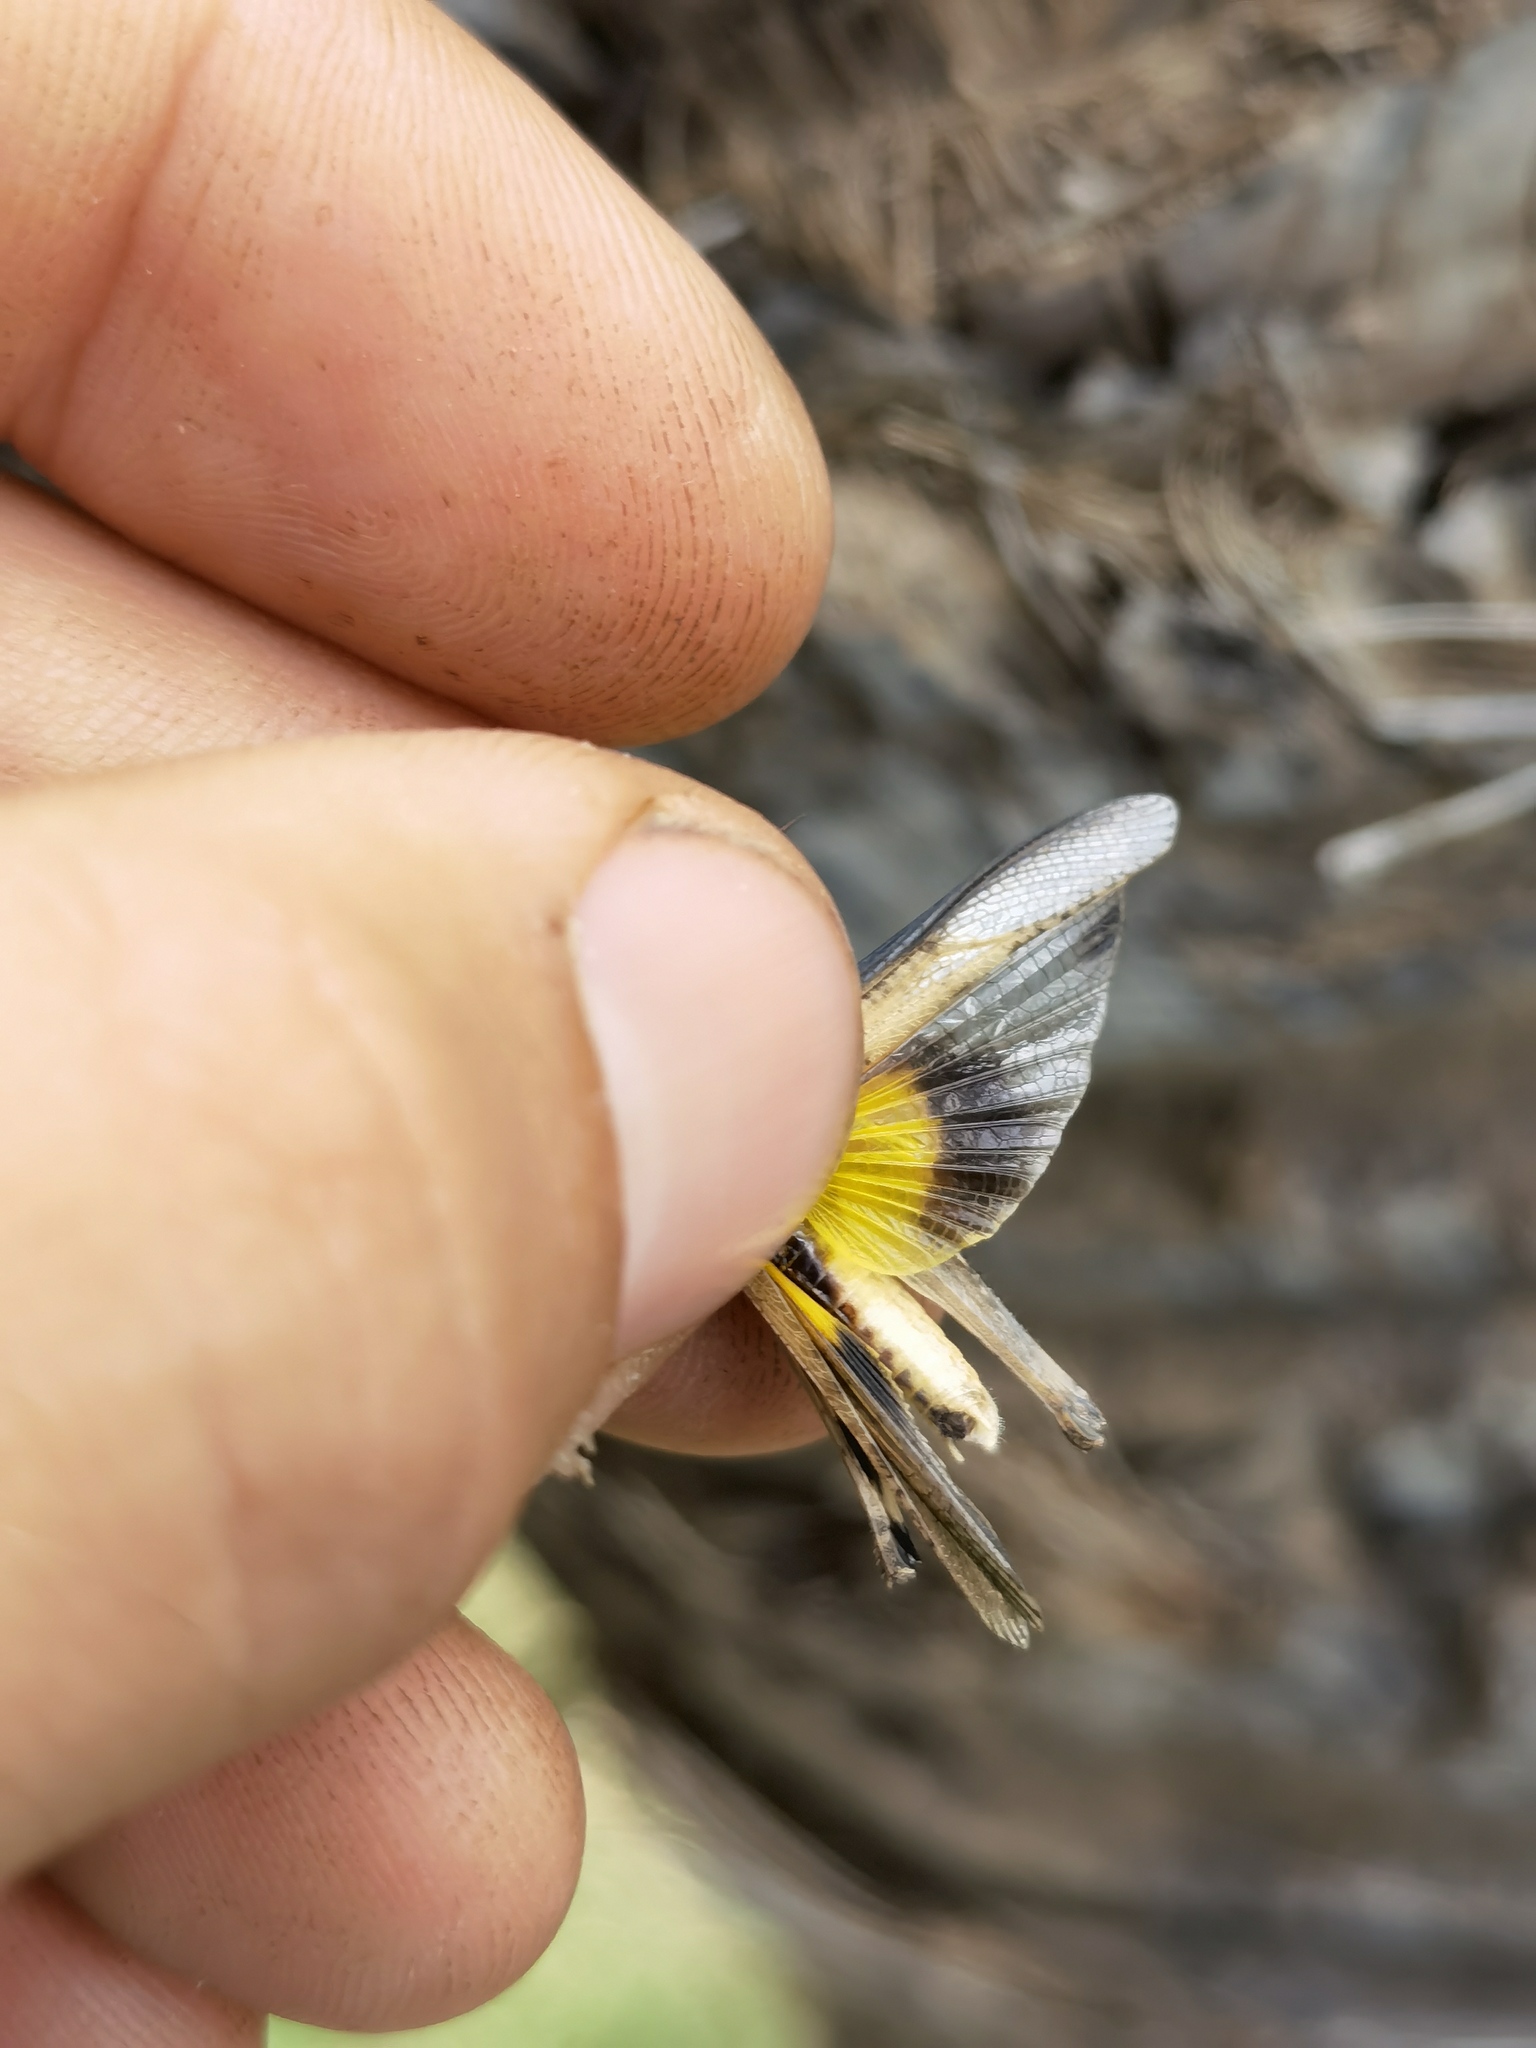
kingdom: Animalia
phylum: Arthropoda
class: Insecta
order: Orthoptera
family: Acrididae
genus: Morphacris
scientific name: Morphacris fasciata
